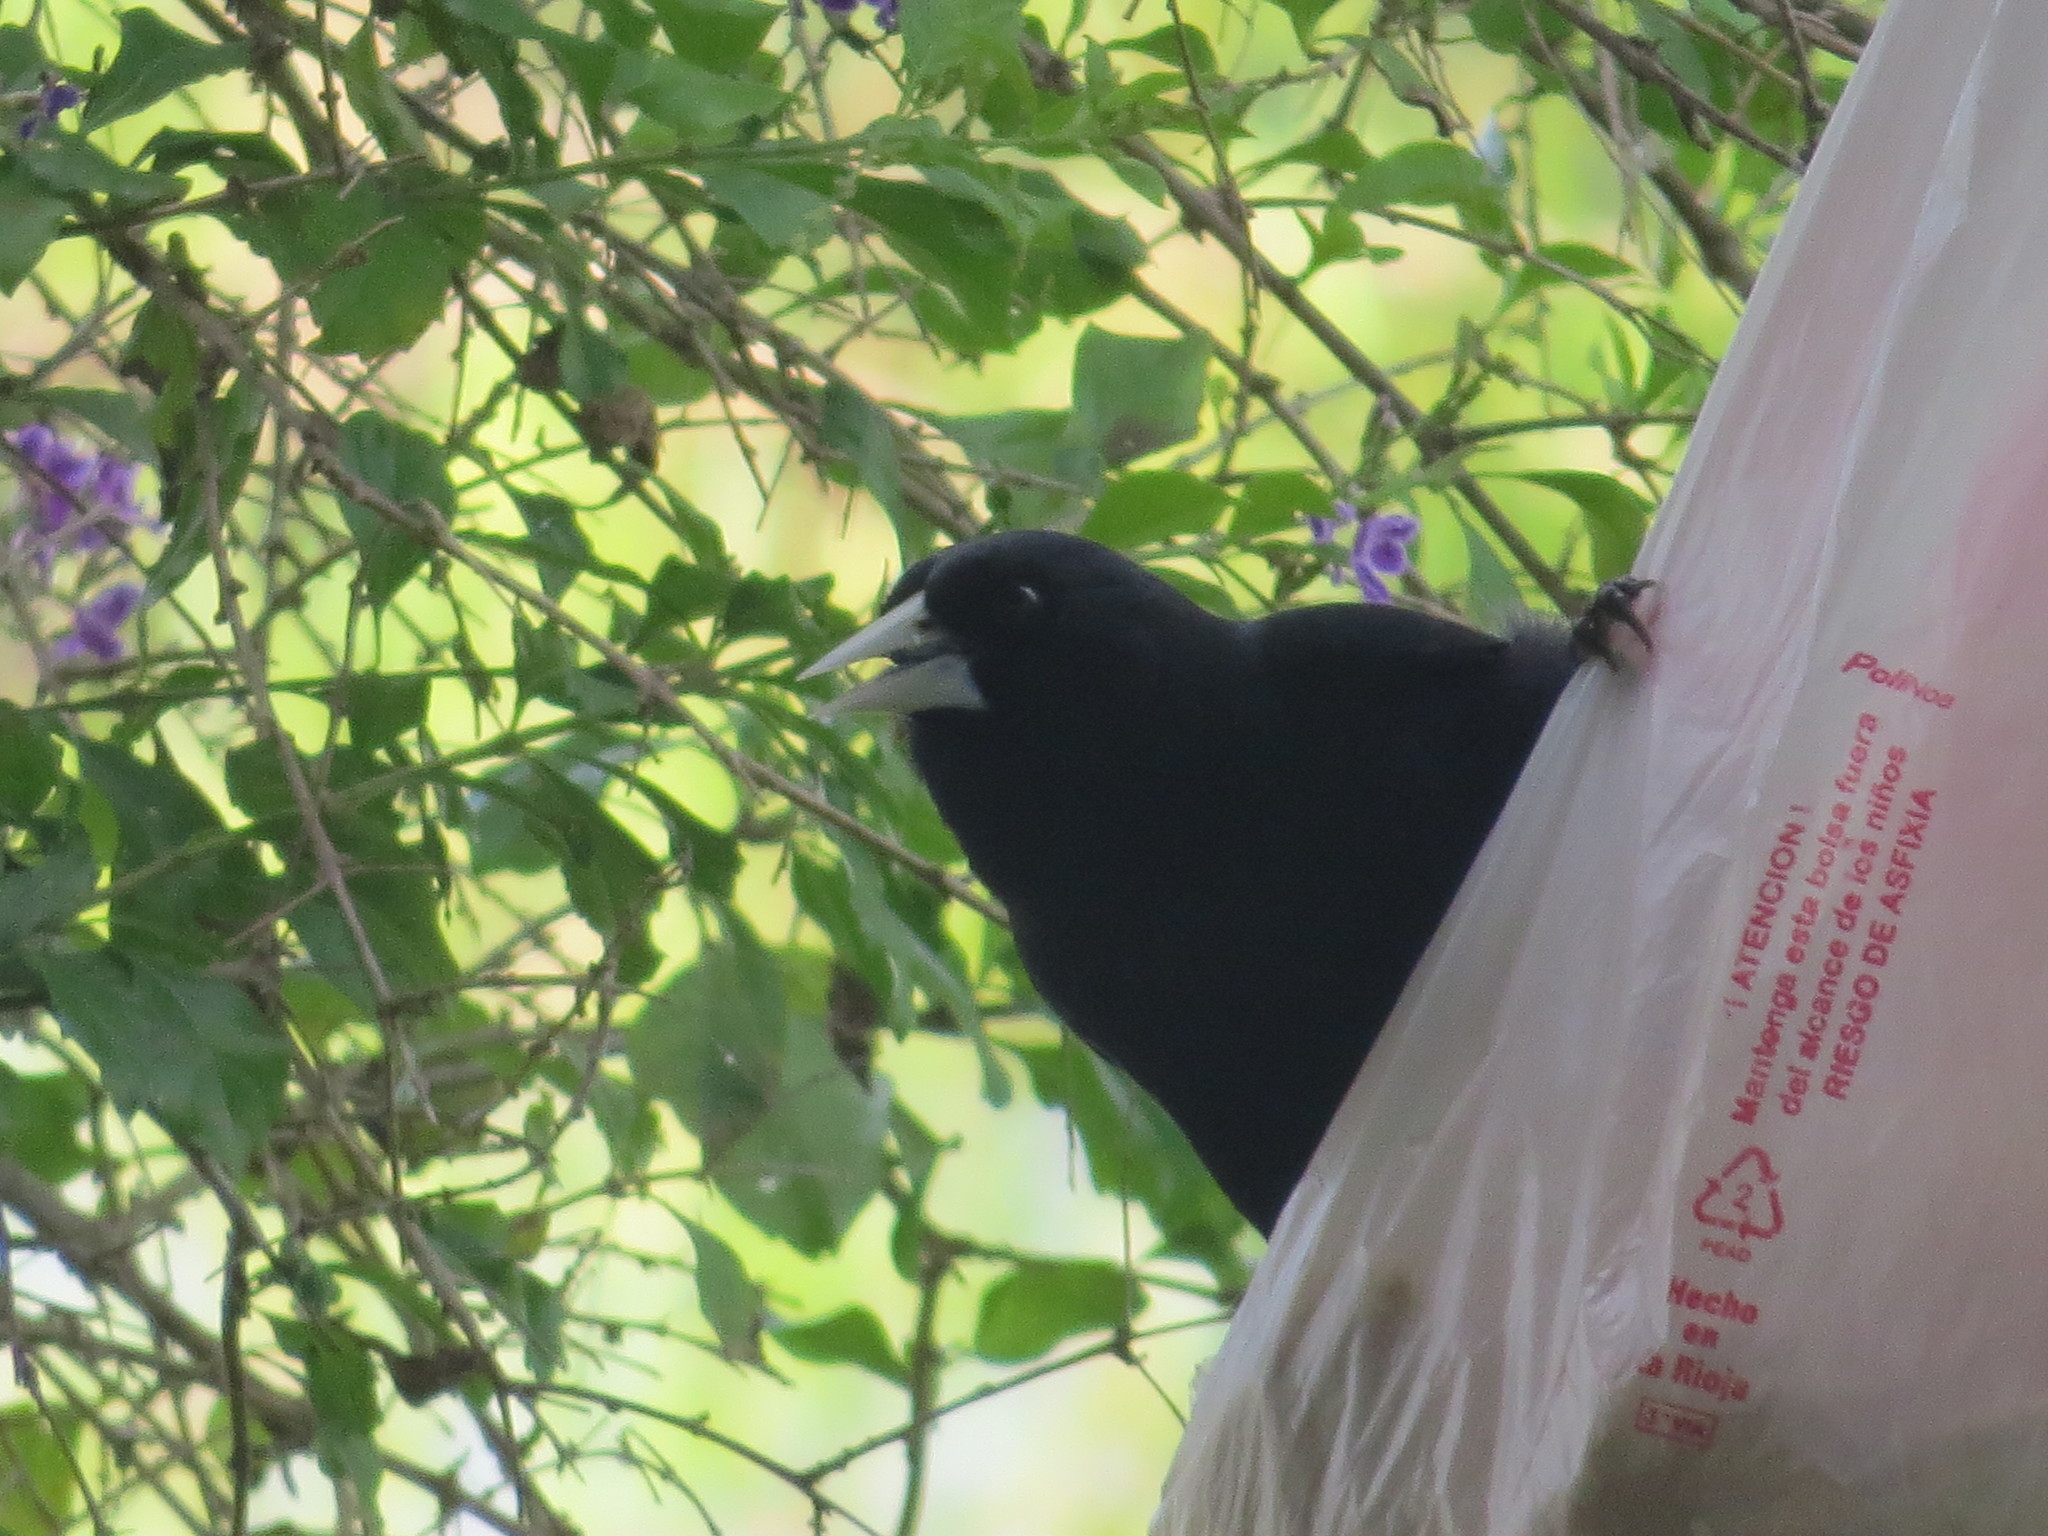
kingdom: Animalia
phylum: Chordata
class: Aves
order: Passeriformes
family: Icteridae
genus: Cacicus
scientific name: Cacicus solitarius
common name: Solitary cacique
